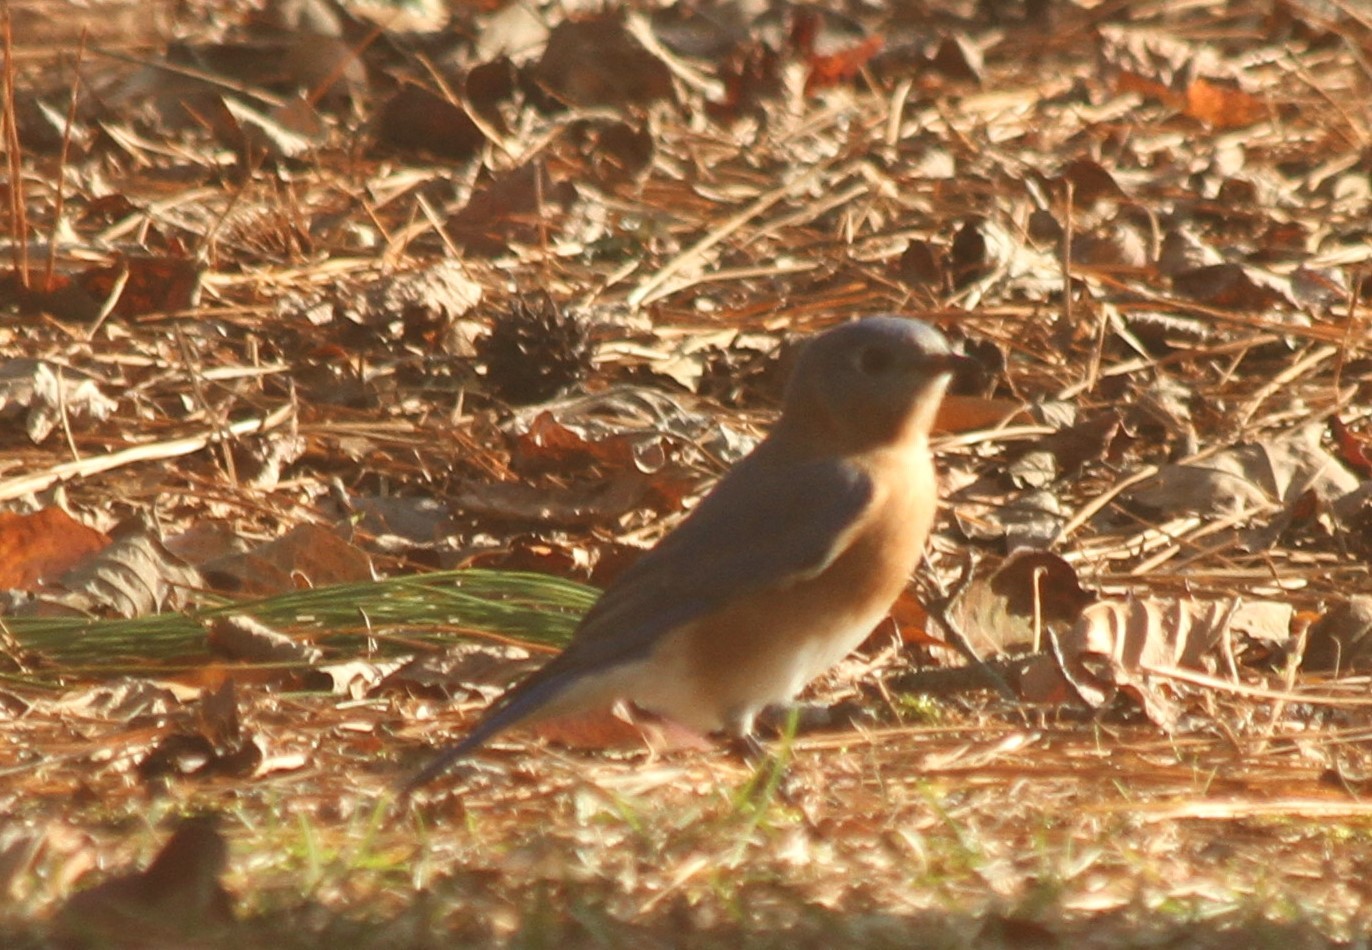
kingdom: Animalia
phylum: Chordata
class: Aves
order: Passeriformes
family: Turdidae
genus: Sialia
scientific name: Sialia sialis
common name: Eastern bluebird
